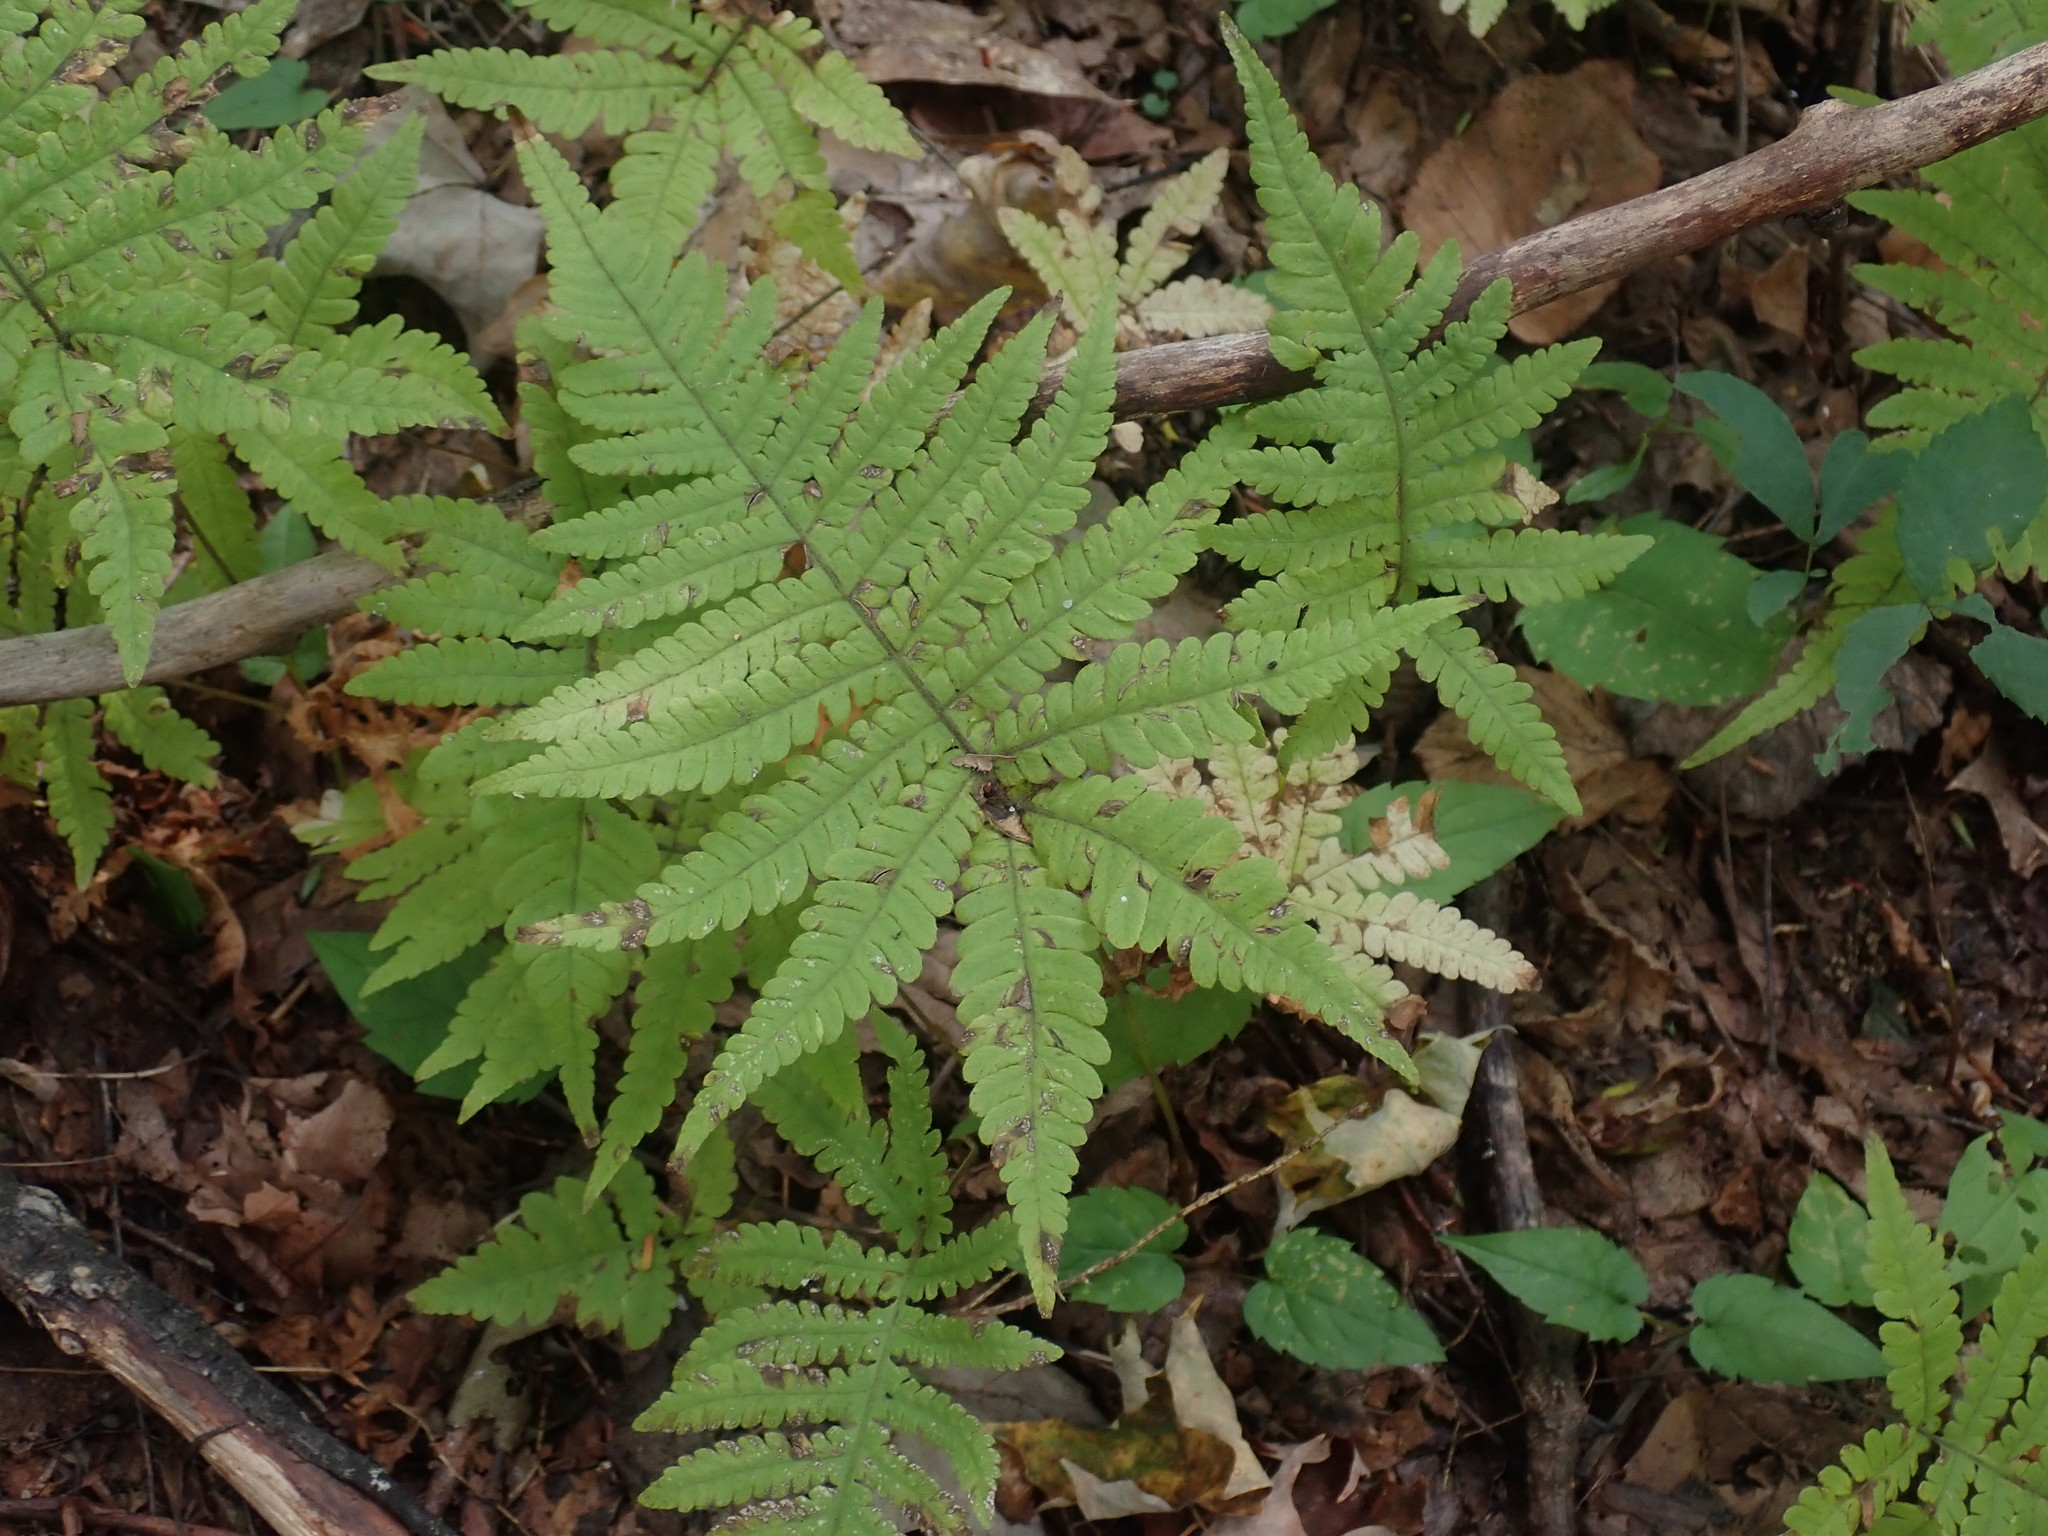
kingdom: Plantae
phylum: Tracheophyta
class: Polypodiopsida
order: Polypodiales
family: Thelypteridaceae
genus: Phegopteris
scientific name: Phegopteris connectilis
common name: Beech fern
